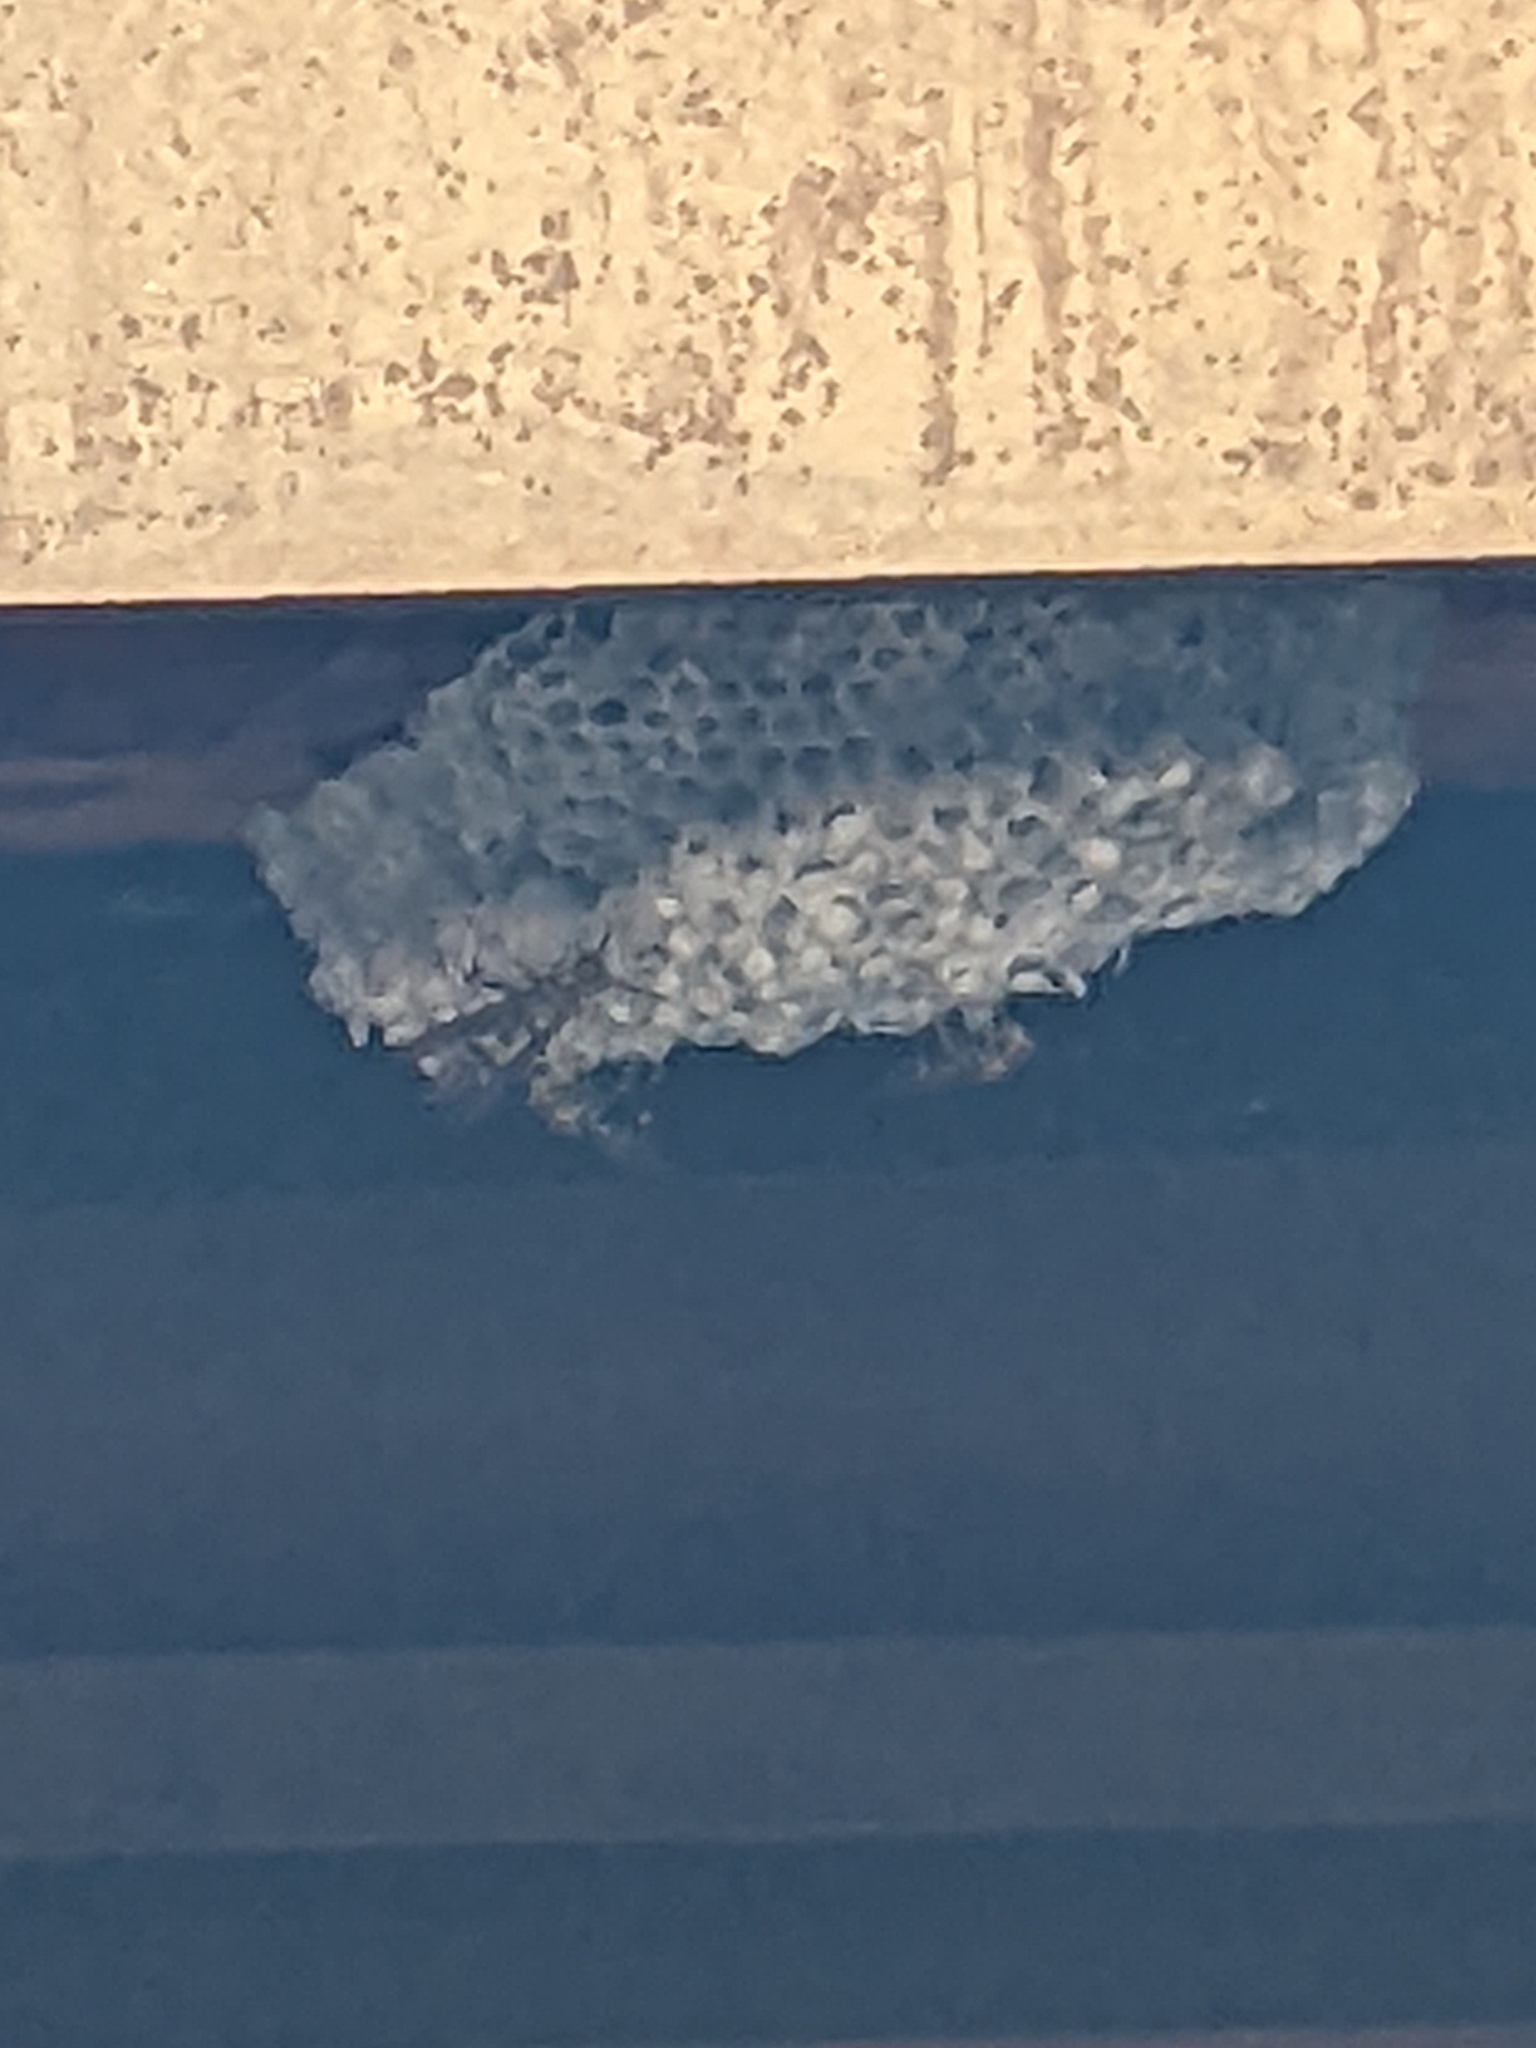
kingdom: Animalia
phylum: Arthropoda
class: Insecta
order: Hymenoptera
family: Eumenidae
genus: Polistes
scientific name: Polistes myersi
